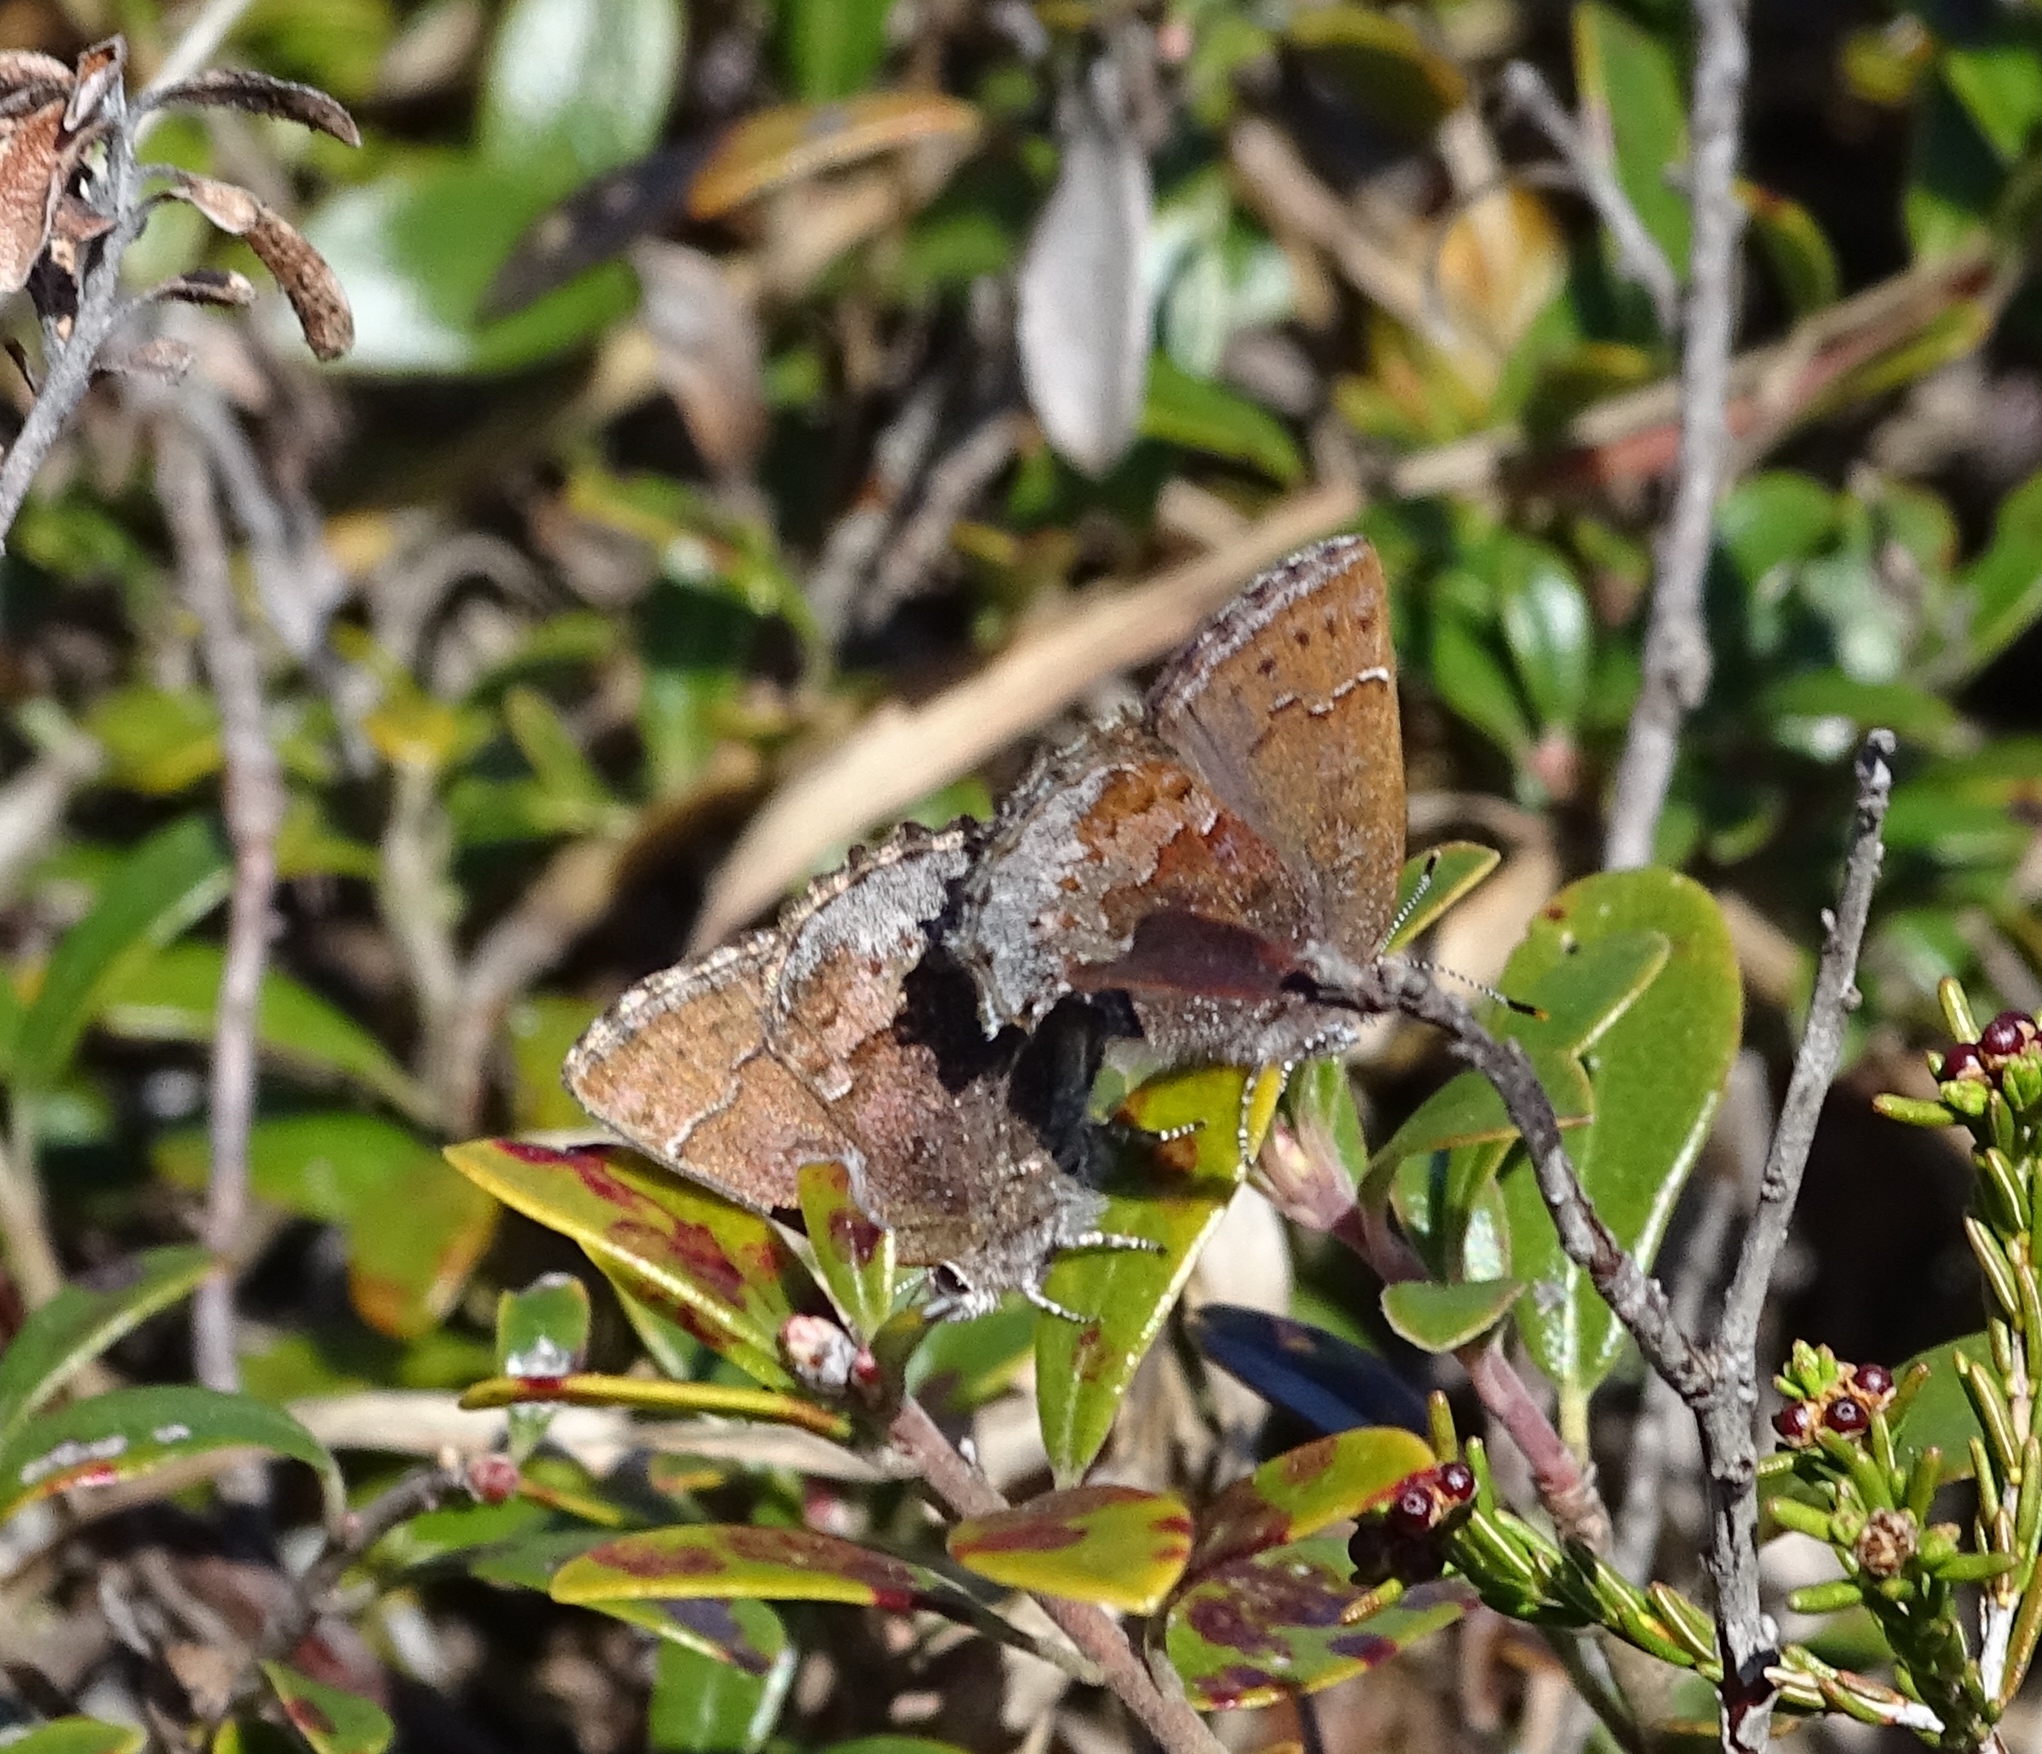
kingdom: Animalia
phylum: Arthropoda
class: Insecta
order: Lepidoptera
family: Lycaenidae
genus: Callophrys
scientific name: Callophrys polios
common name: Hoary elfin
